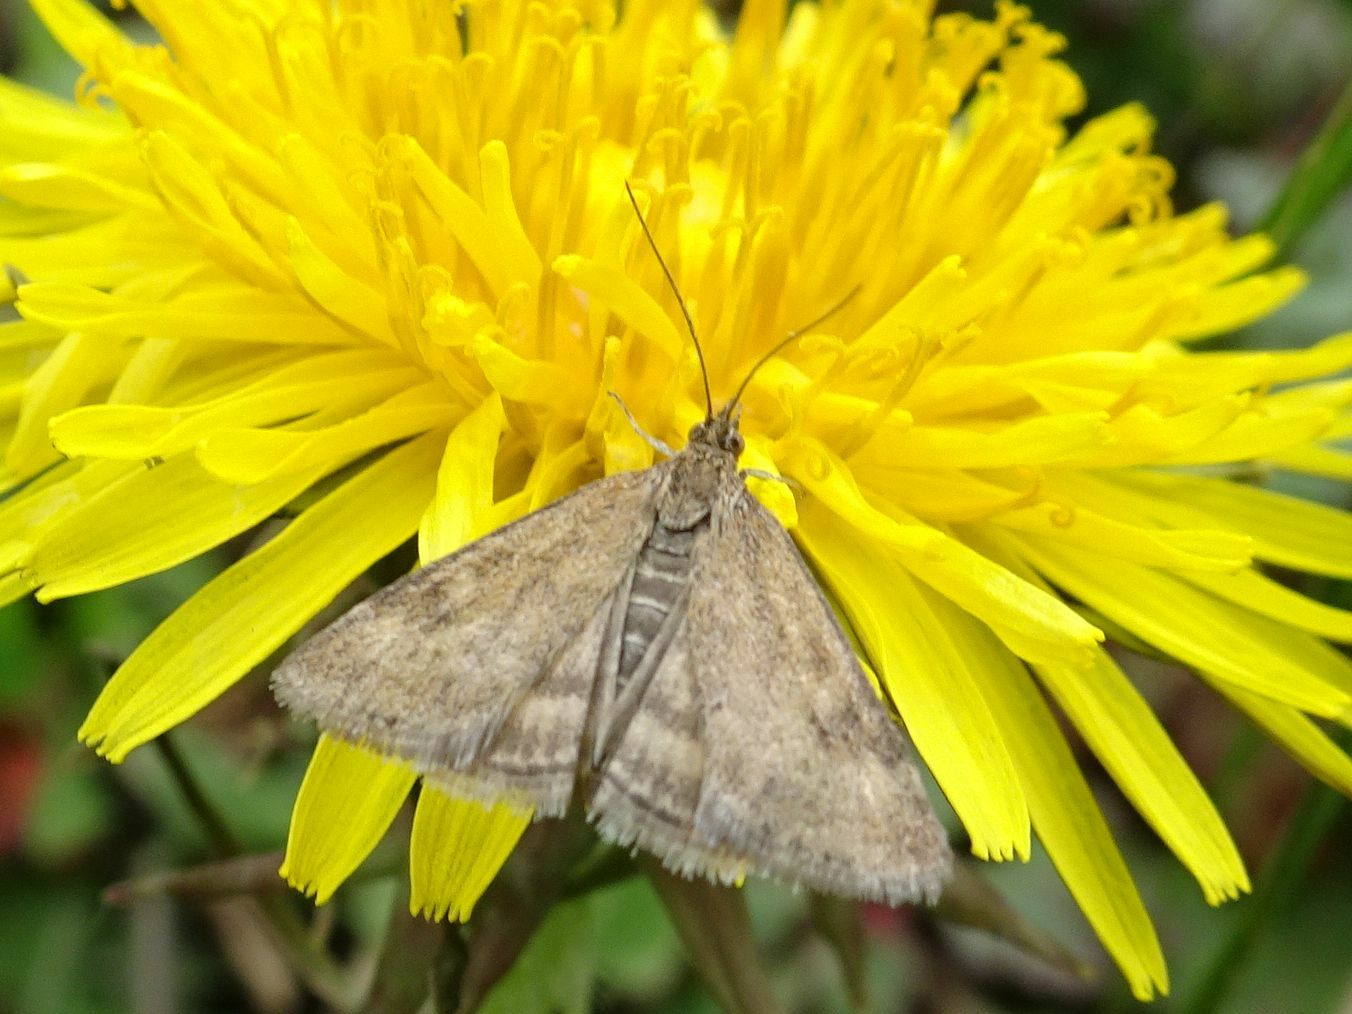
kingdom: Animalia
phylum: Arthropoda
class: Insecta
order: Lepidoptera
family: Crambidae
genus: Pyrausta
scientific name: Pyrausta despicata
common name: Straw-barred pearl
